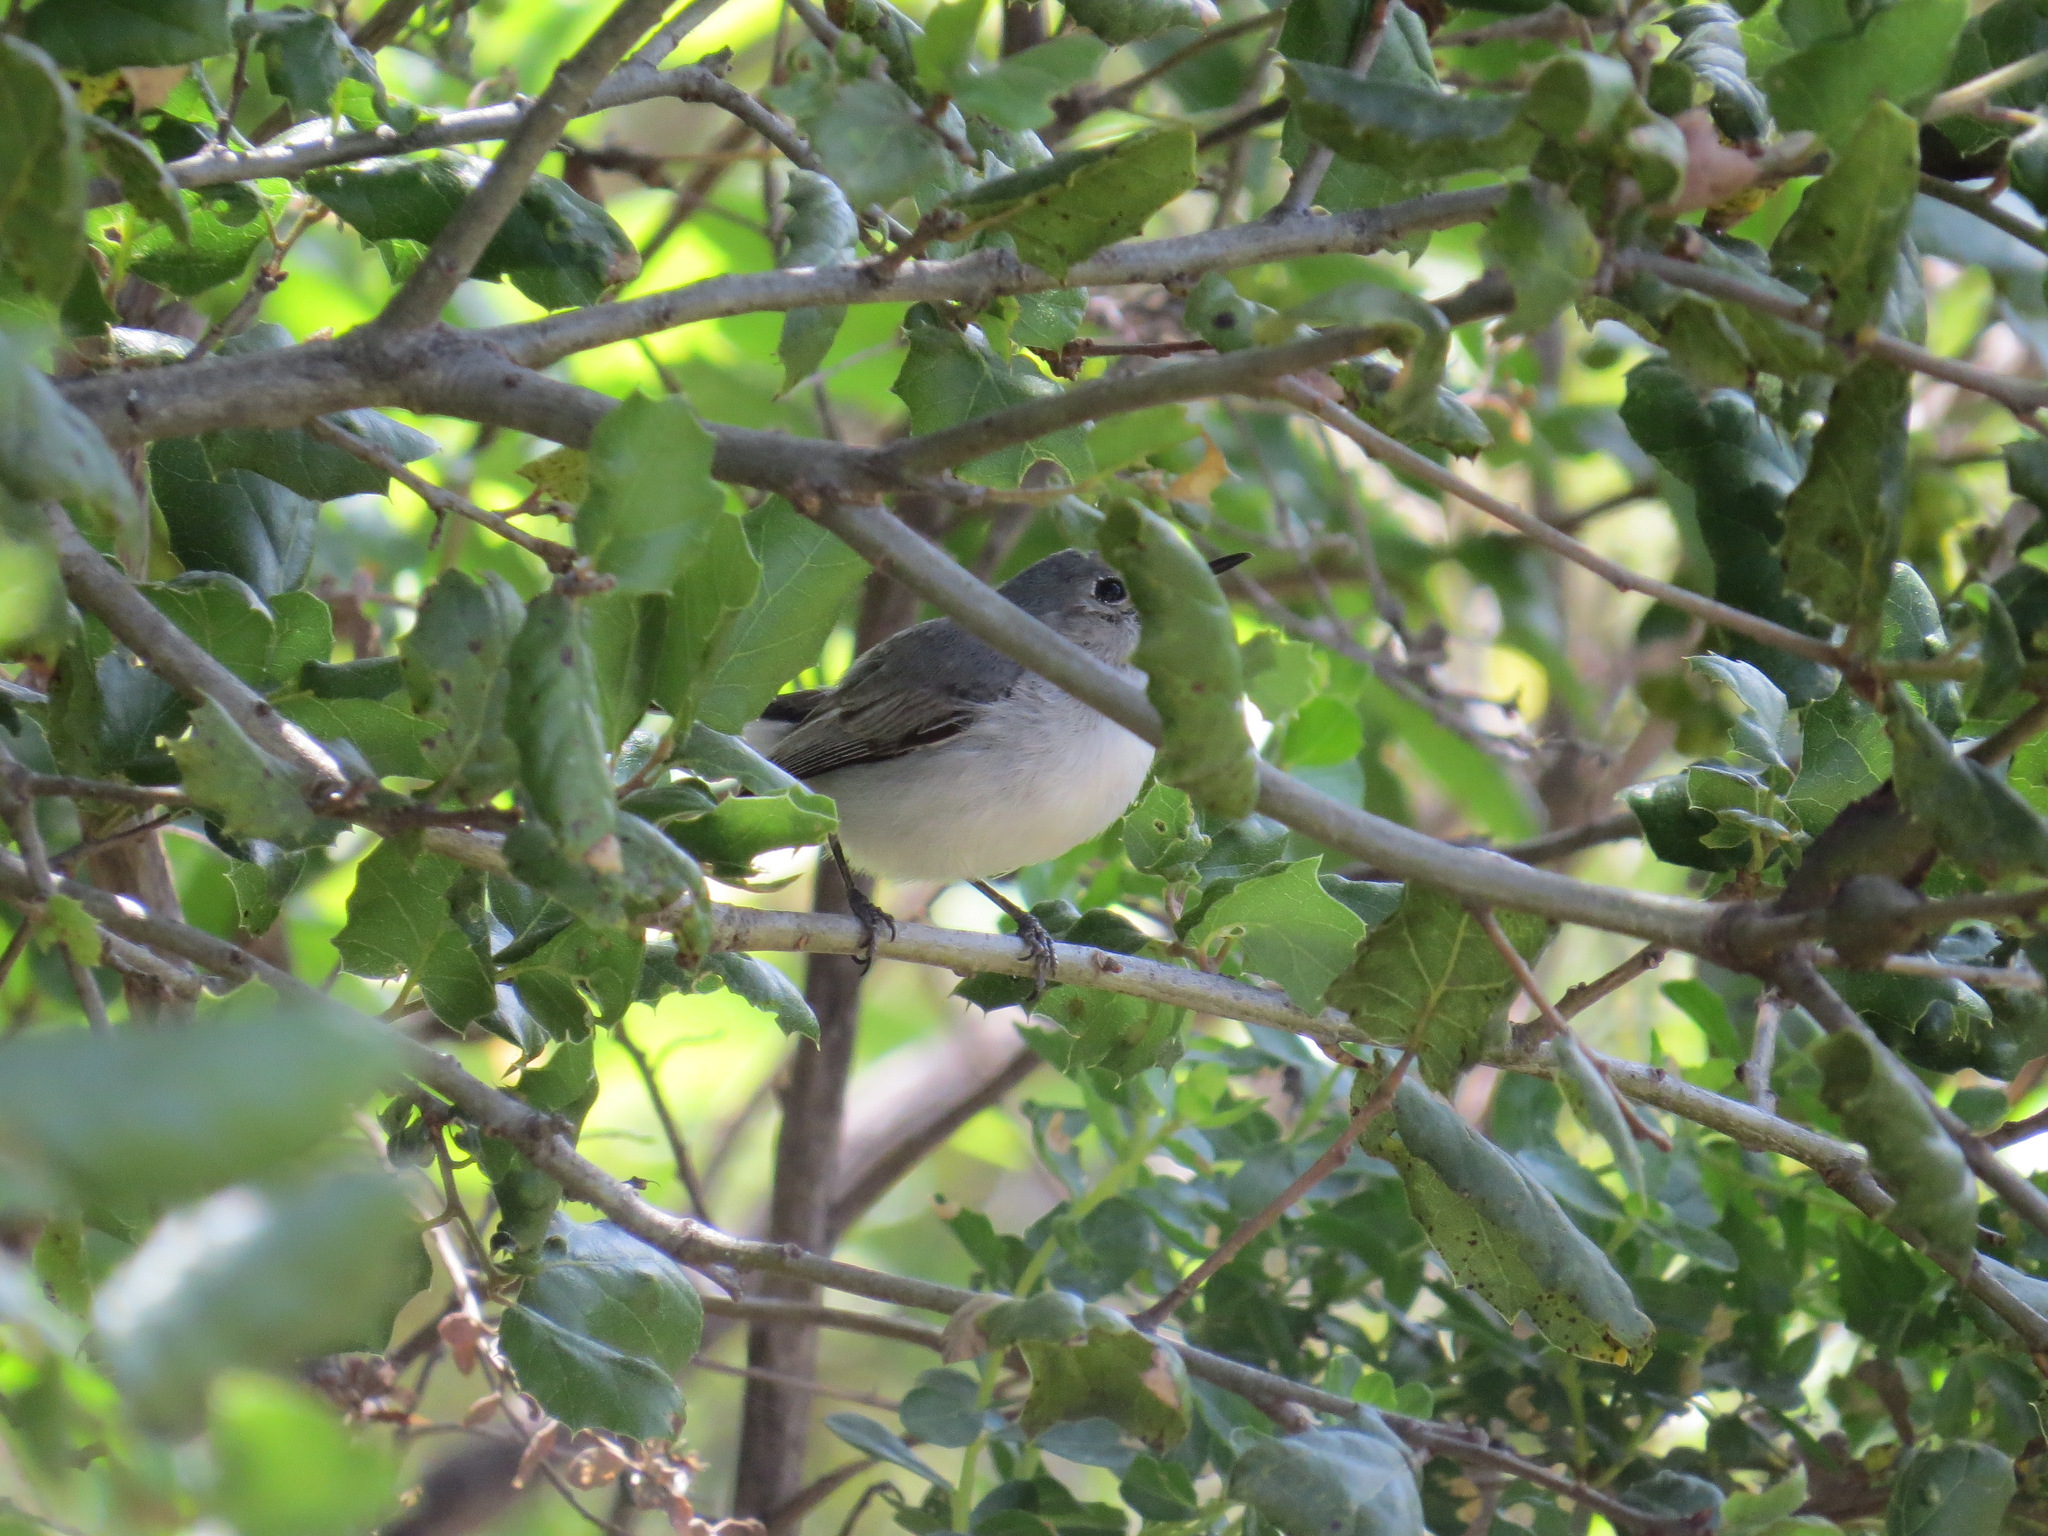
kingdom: Animalia
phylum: Chordata
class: Aves
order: Passeriformes
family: Polioptilidae
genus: Polioptila
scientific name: Polioptila caerulea
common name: Blue-gray gnatcatcher
